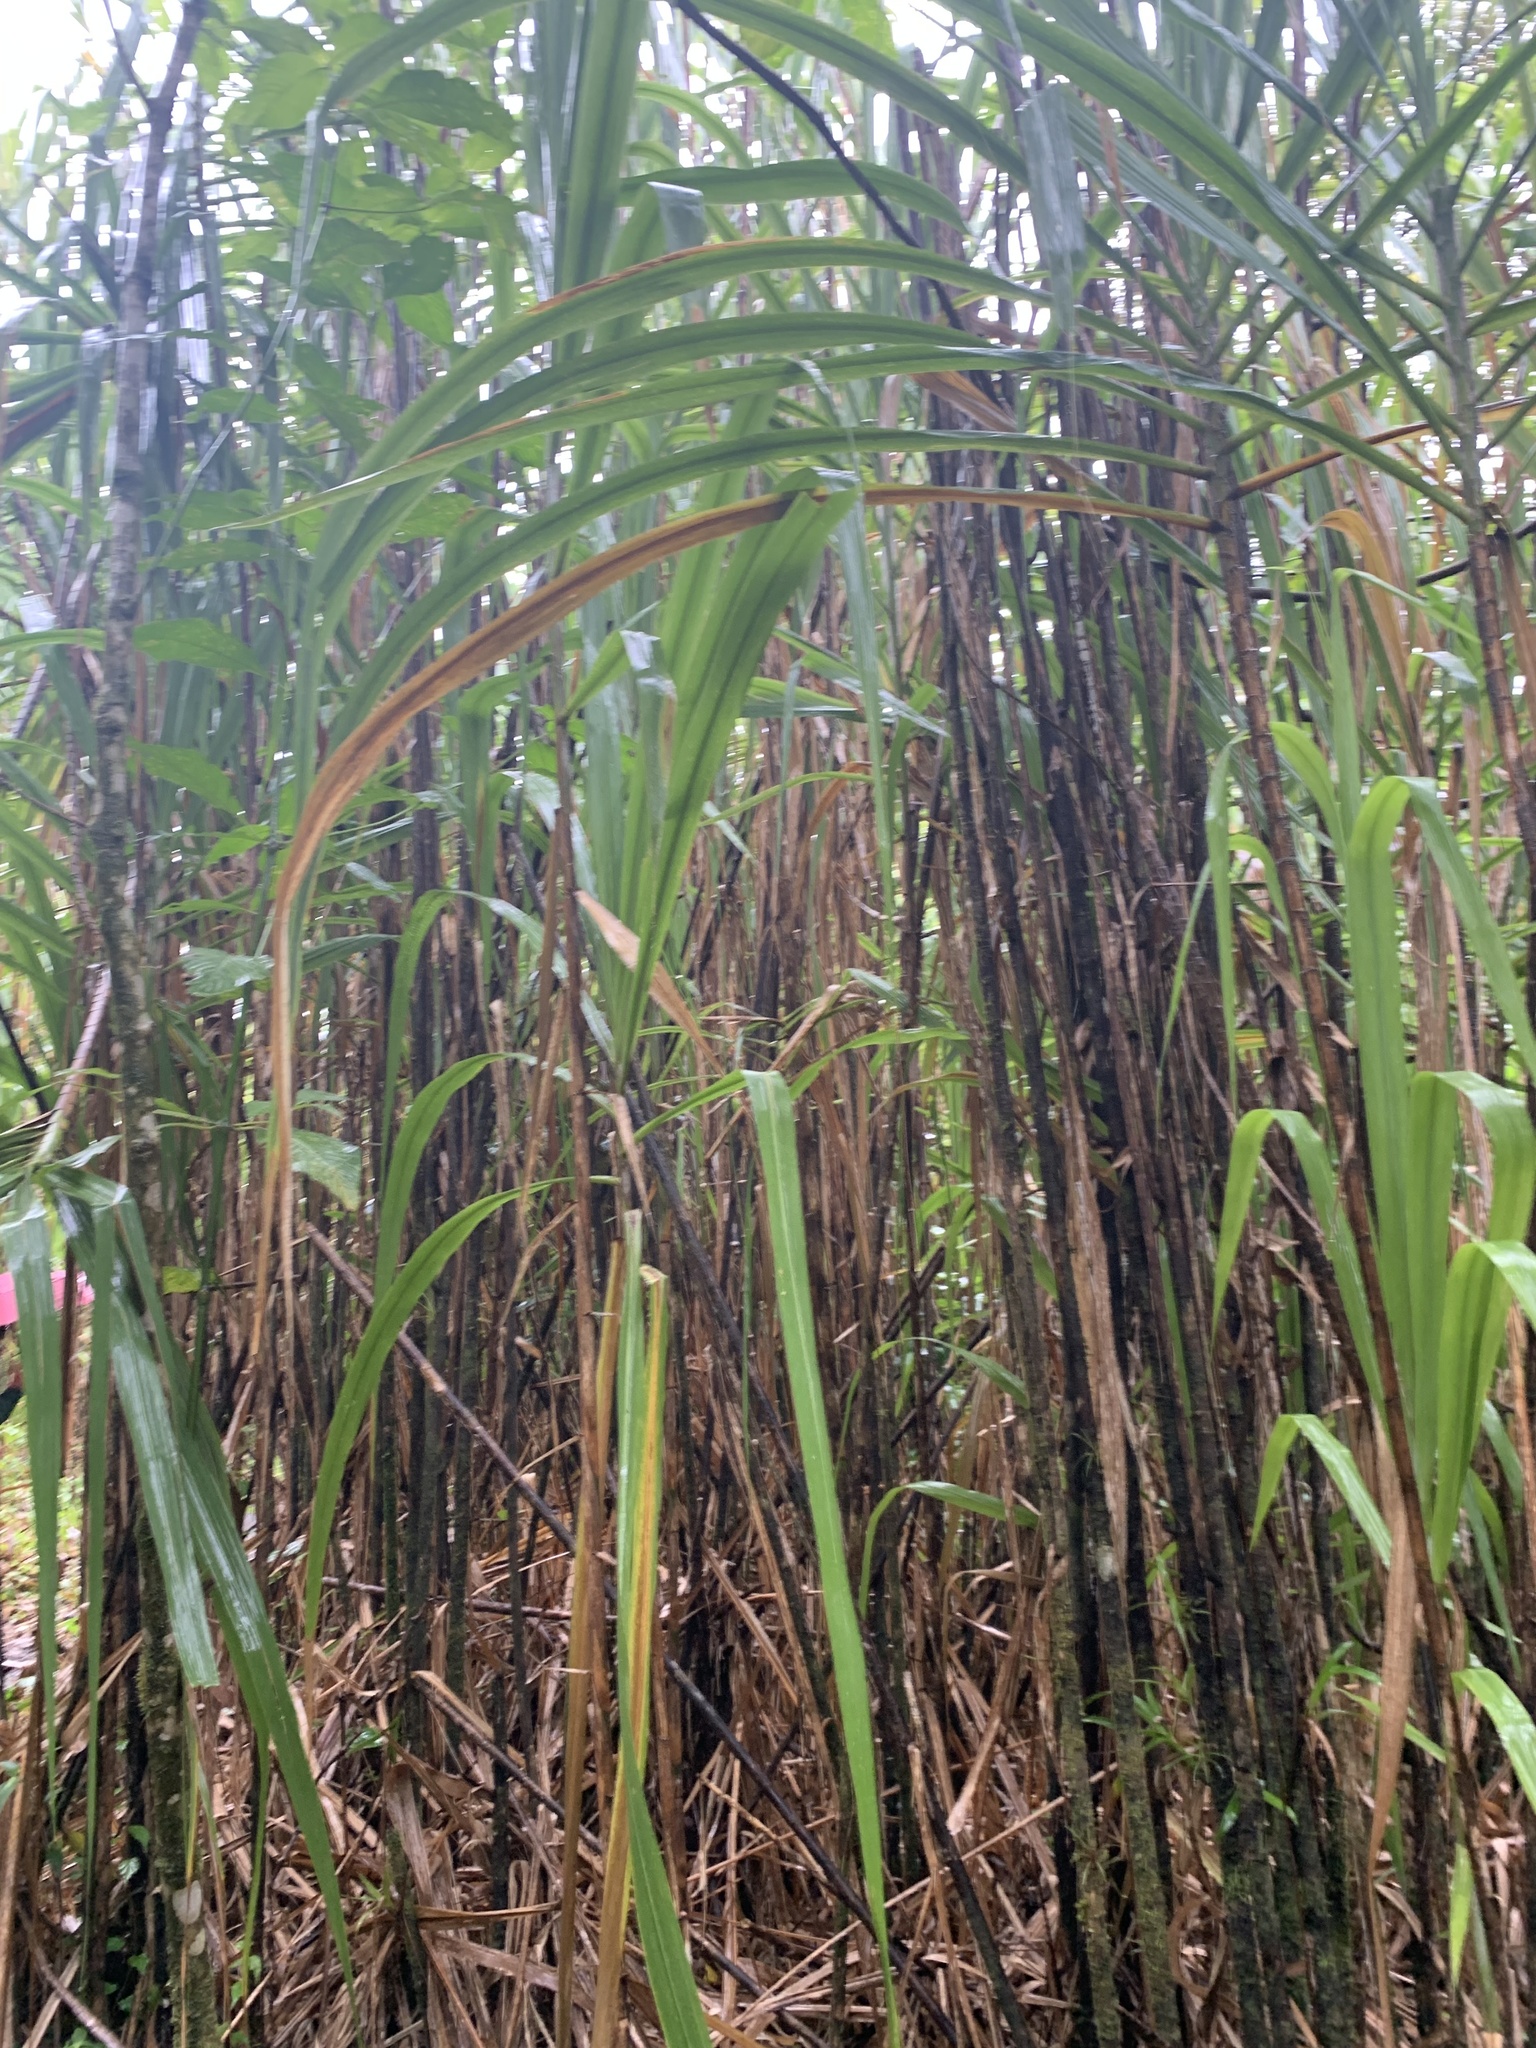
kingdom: Plantae
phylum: Tracheophyta
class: Liliopsida
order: Poales
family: Poaceae
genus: Gynerium
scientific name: Gynerium sagittatum
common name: Wild cane
